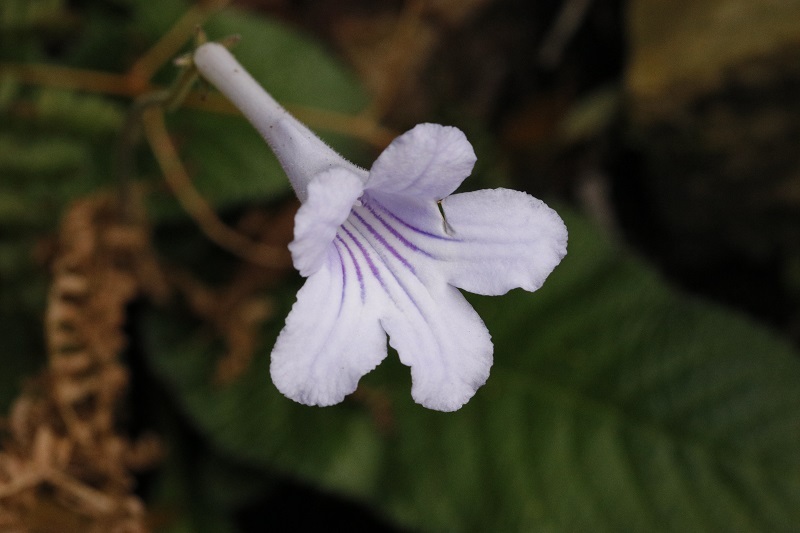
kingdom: Plantae
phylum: Tracheophyta
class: Magnoliopsida
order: Lamiales
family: Gesneriaceae
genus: Streptocarpus
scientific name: Streptocarpus rexii
